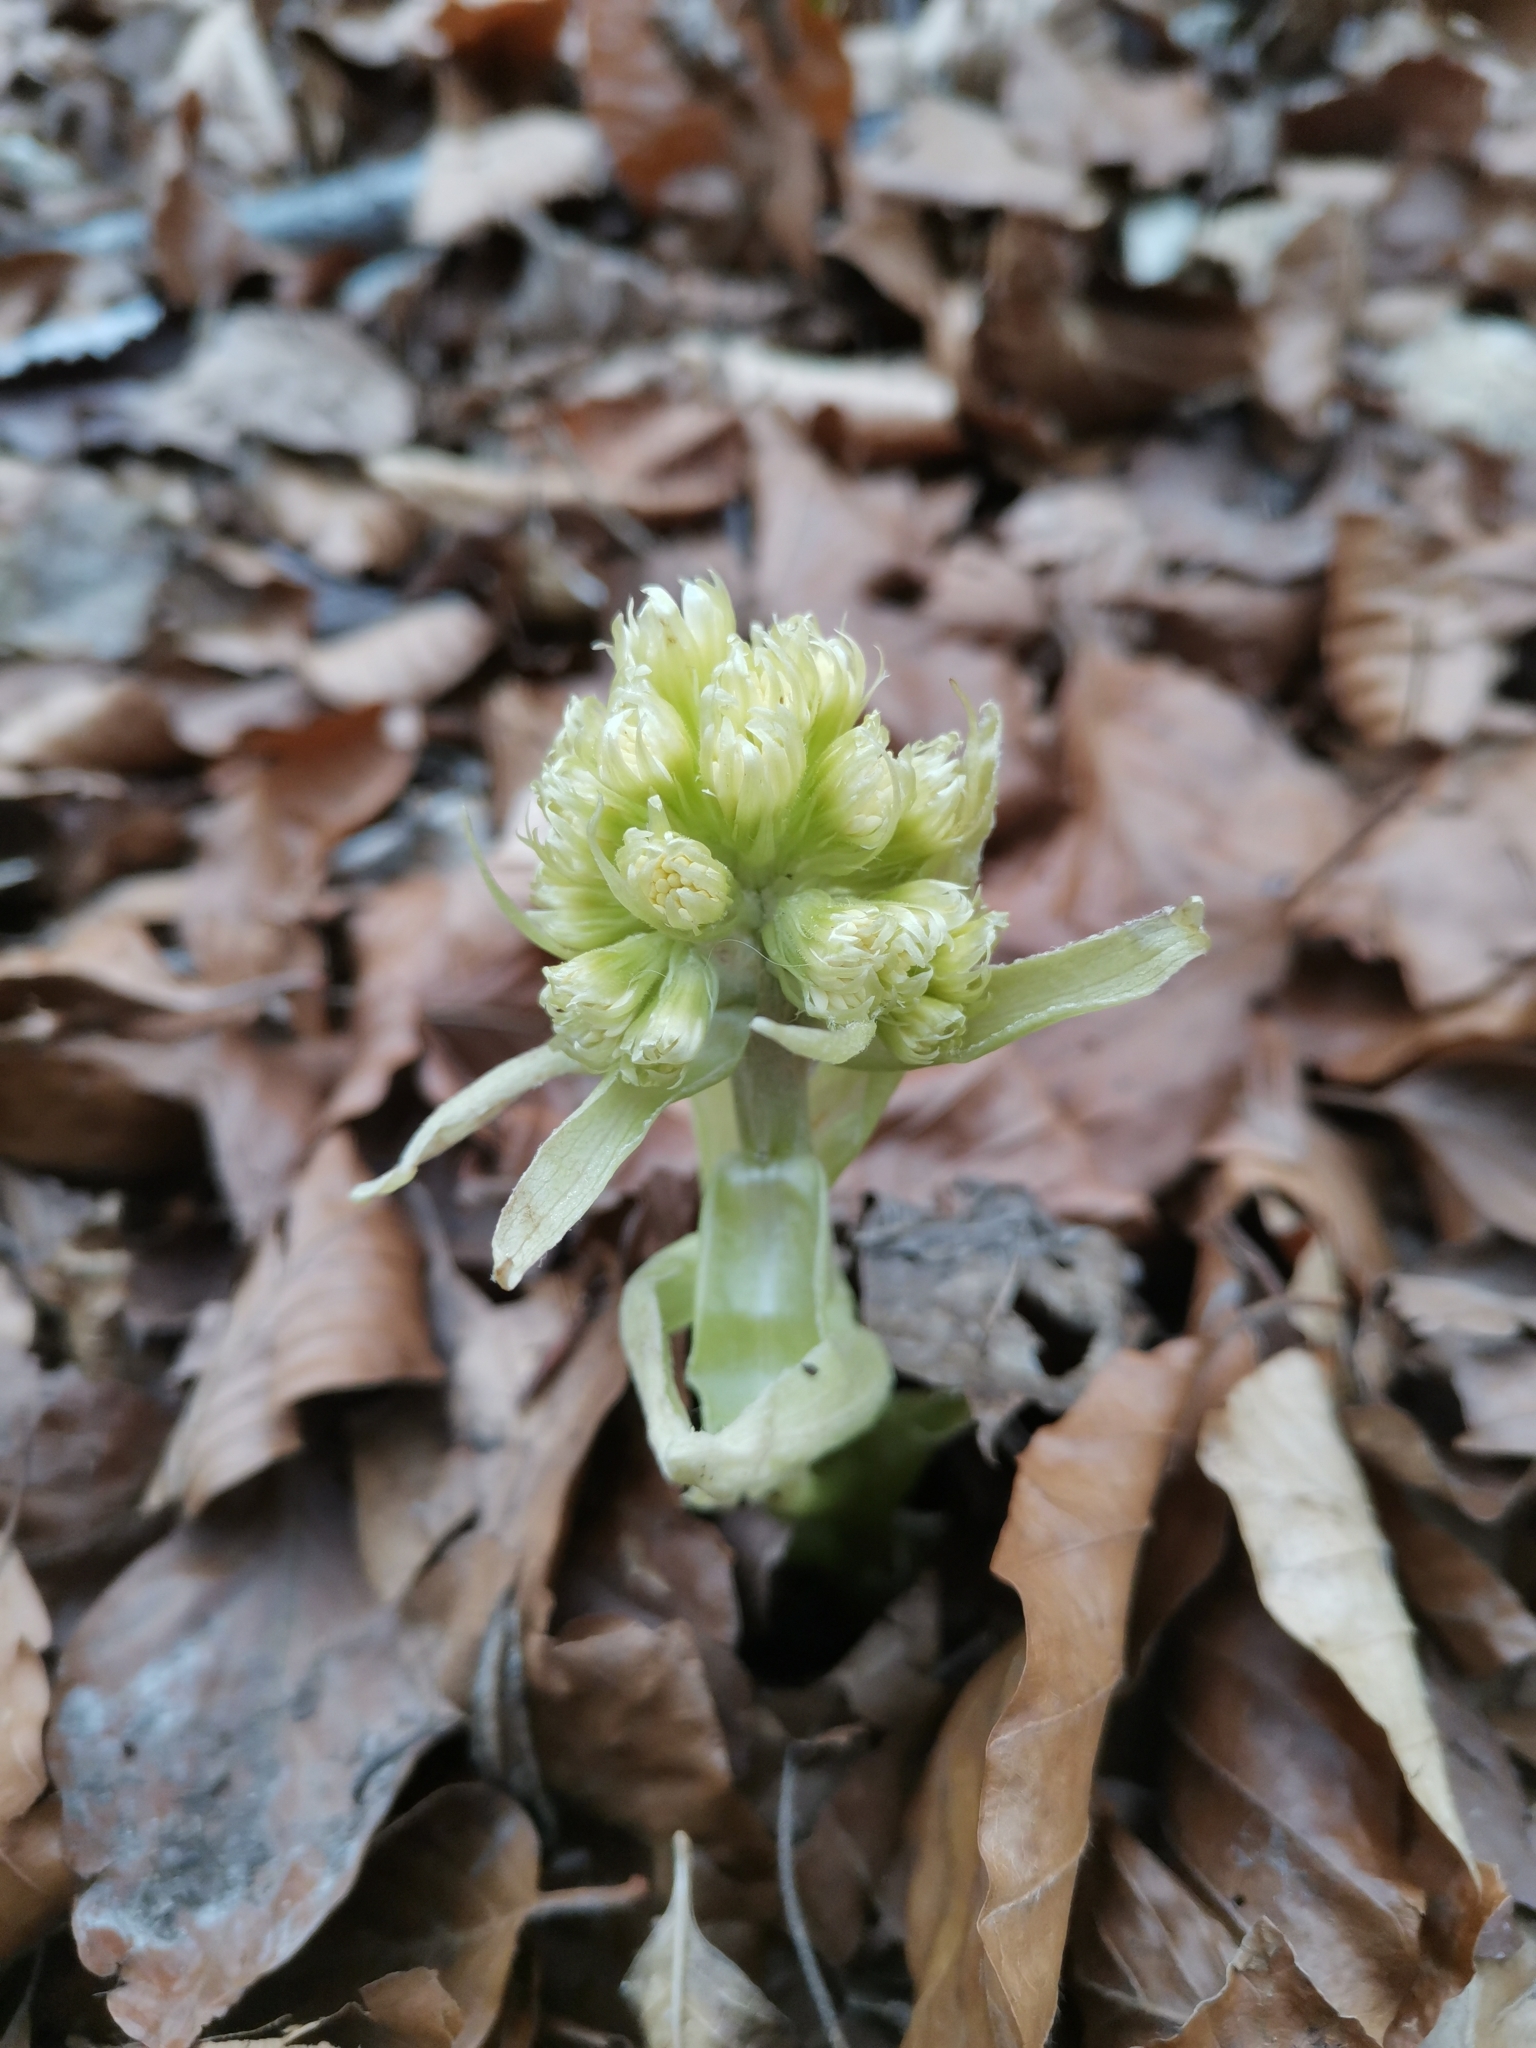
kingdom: Plantae
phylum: Tracheophyta
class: Magnoliopsida
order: Asterales
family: Asteraceae
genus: Petasites
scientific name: Petasites albus
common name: White butterbur
